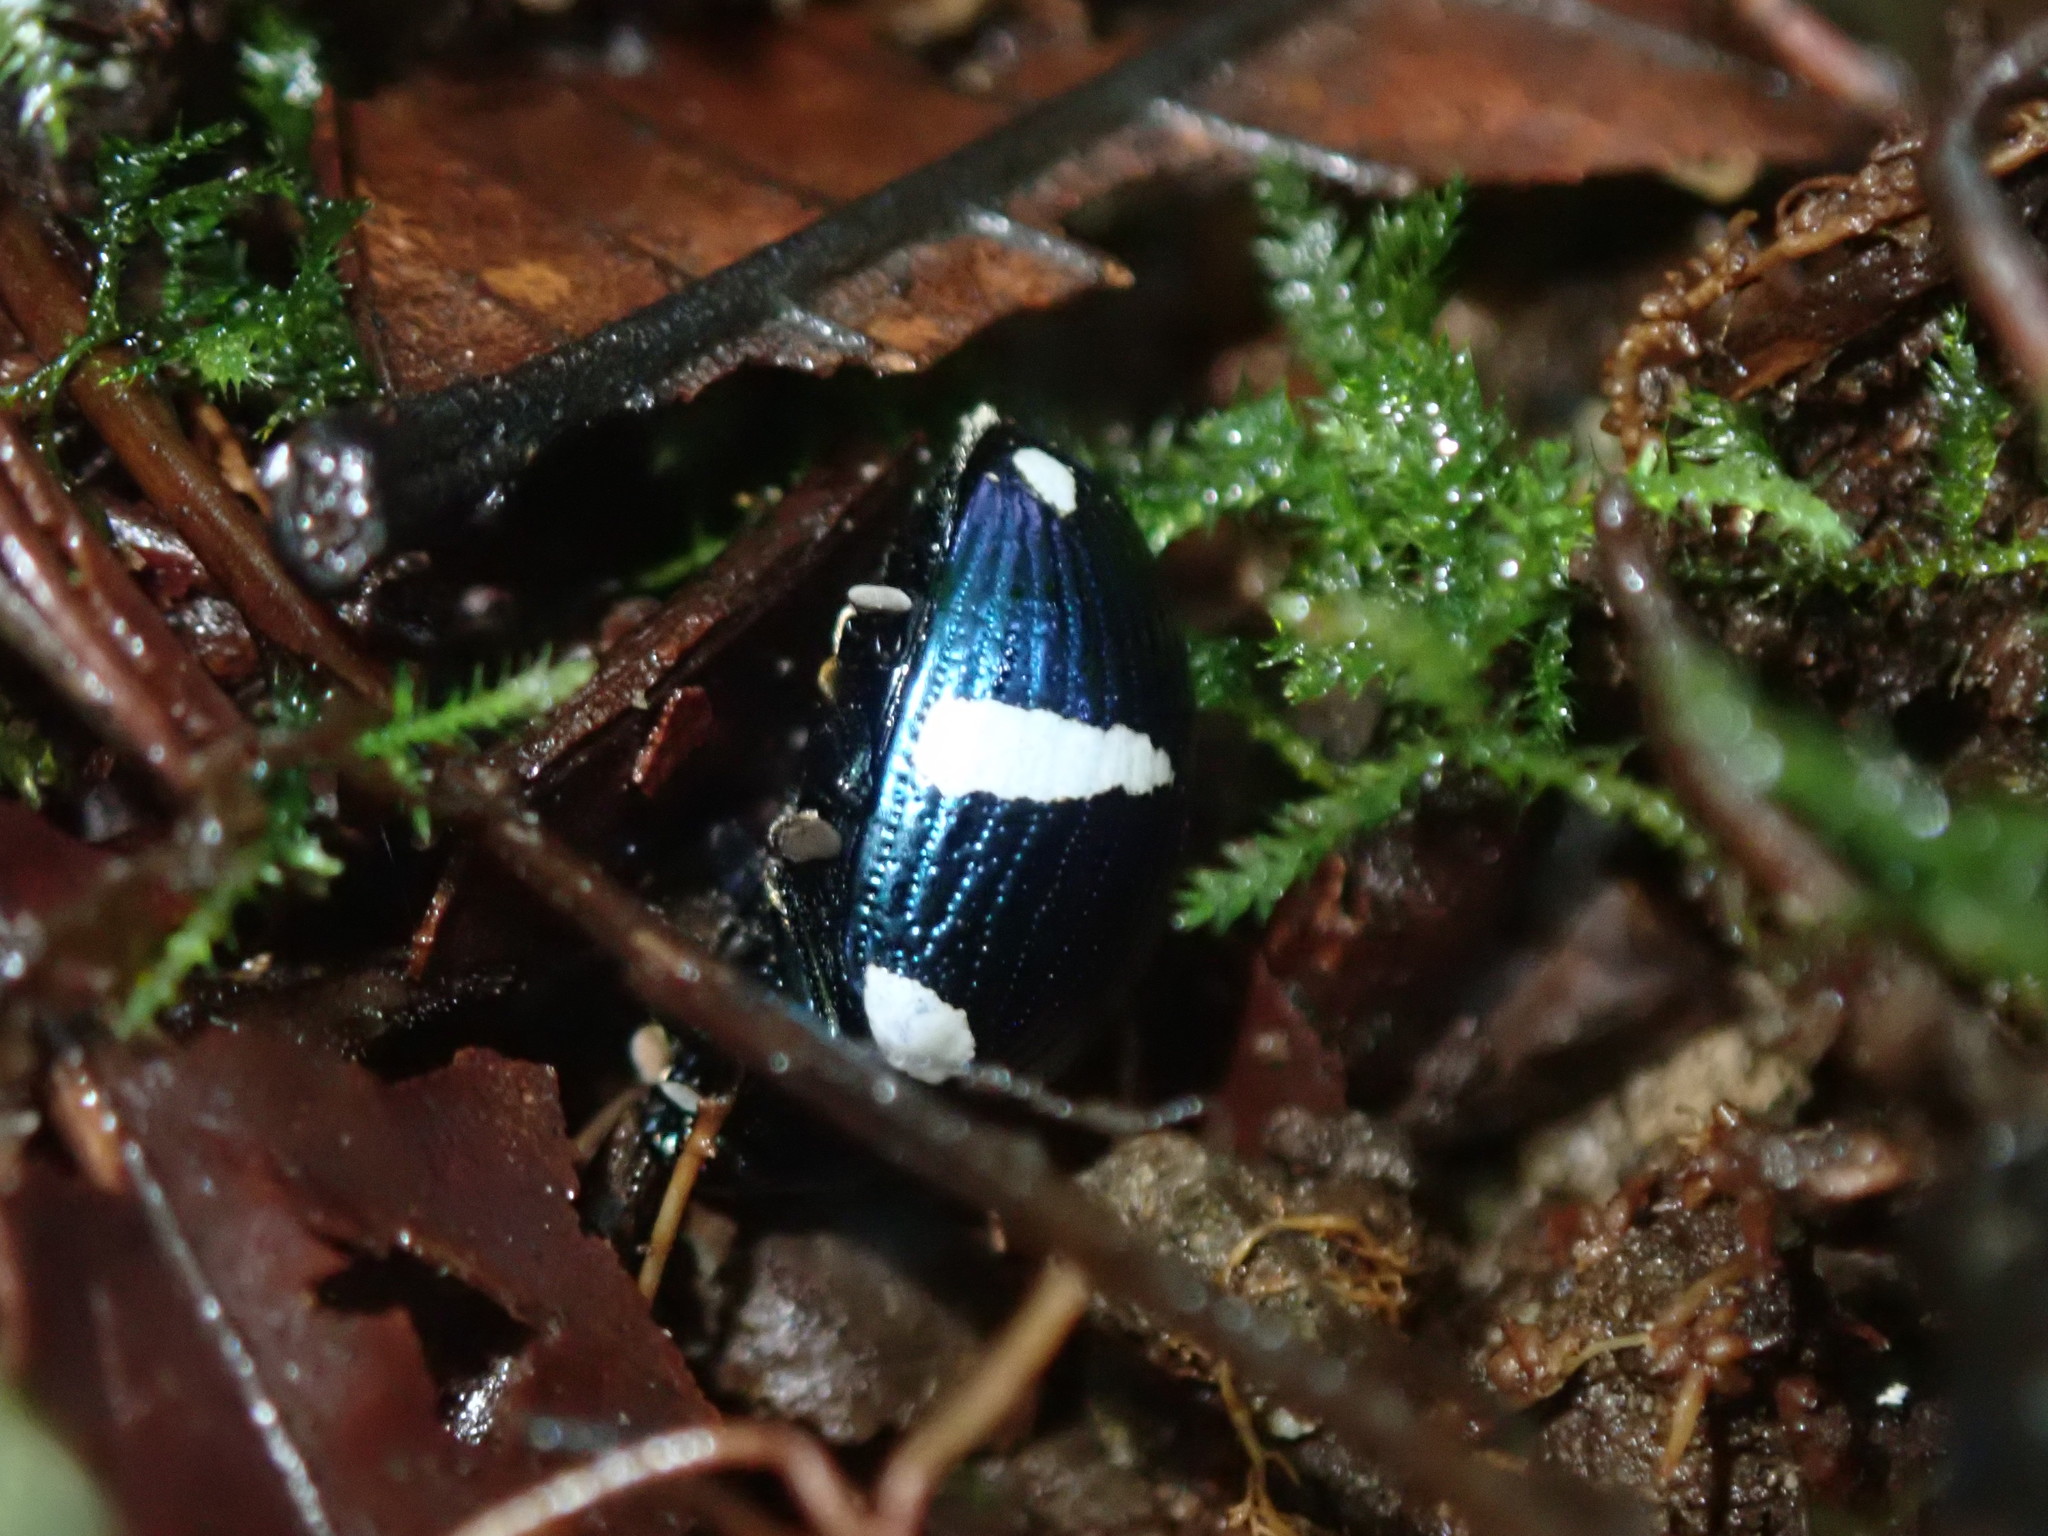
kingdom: Animalia
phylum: Arthropoda
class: Insecta
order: Coleoptera
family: Chrysomelidae
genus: Dorysterna
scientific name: Dorysterna
